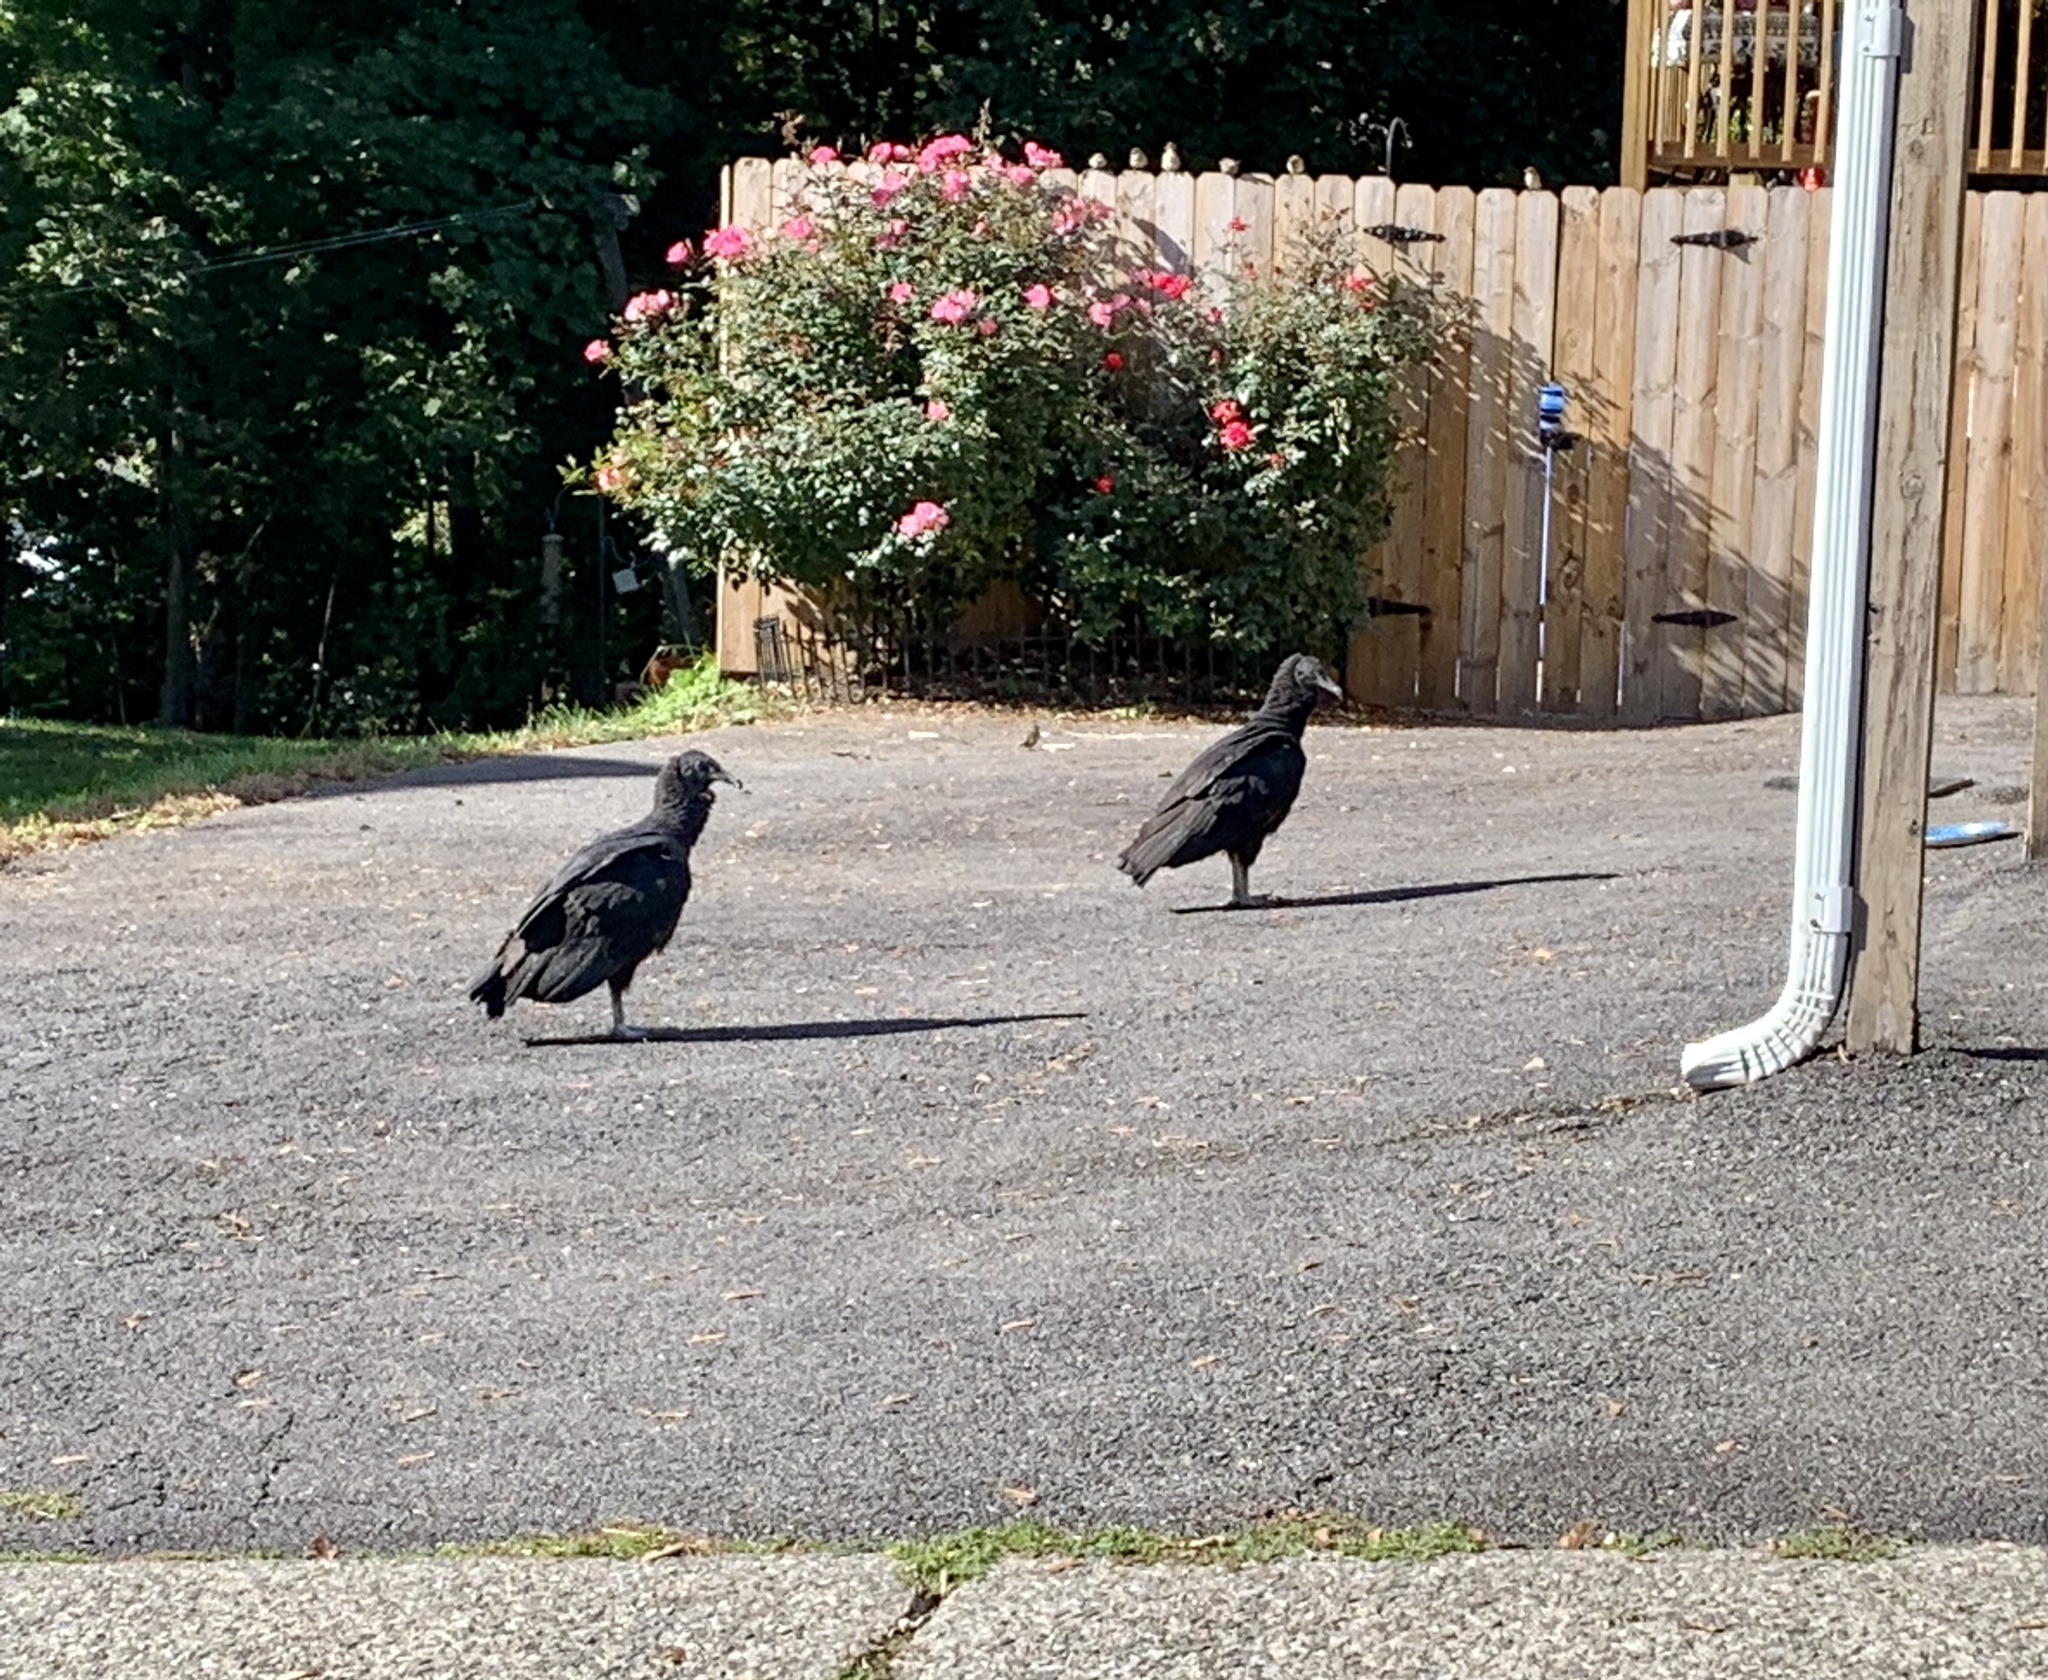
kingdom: Animalia
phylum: Chordata
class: Aves
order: Accipitriformes
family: Cathartidae
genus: Coragyps
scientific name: Coragyps atratus
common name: Black vulture
